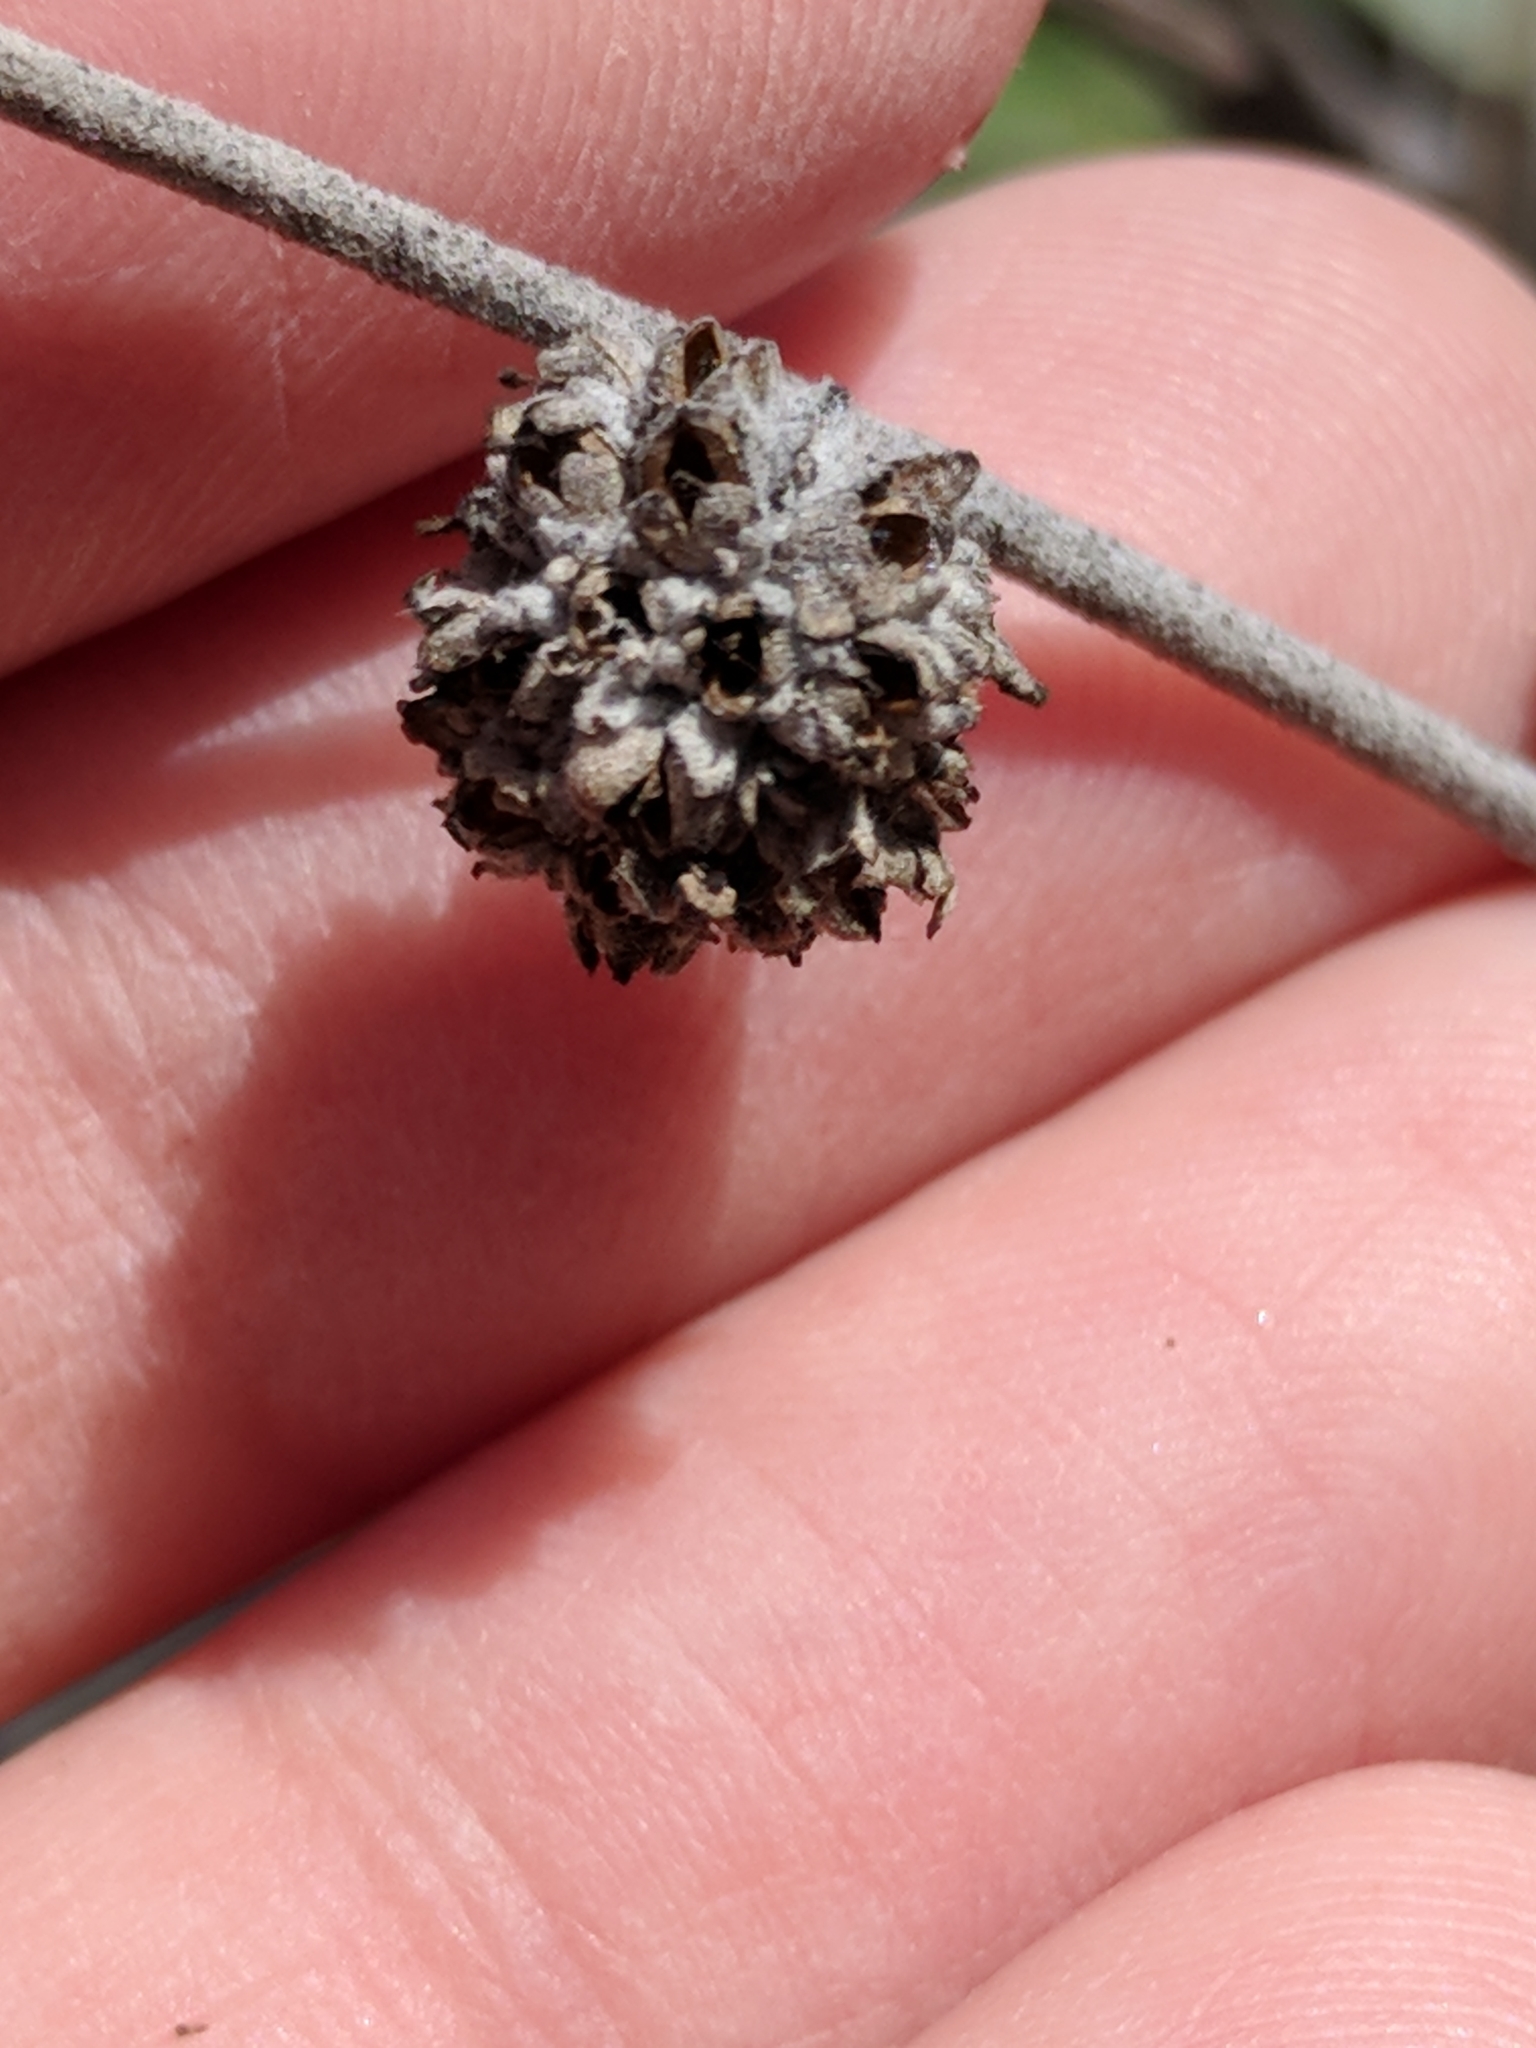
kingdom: Plantae
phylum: Tracheophyta
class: Magnoliopsida
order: Lamiales
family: Scrophulariaceae
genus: Buddleja
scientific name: Buddleja racemosa
